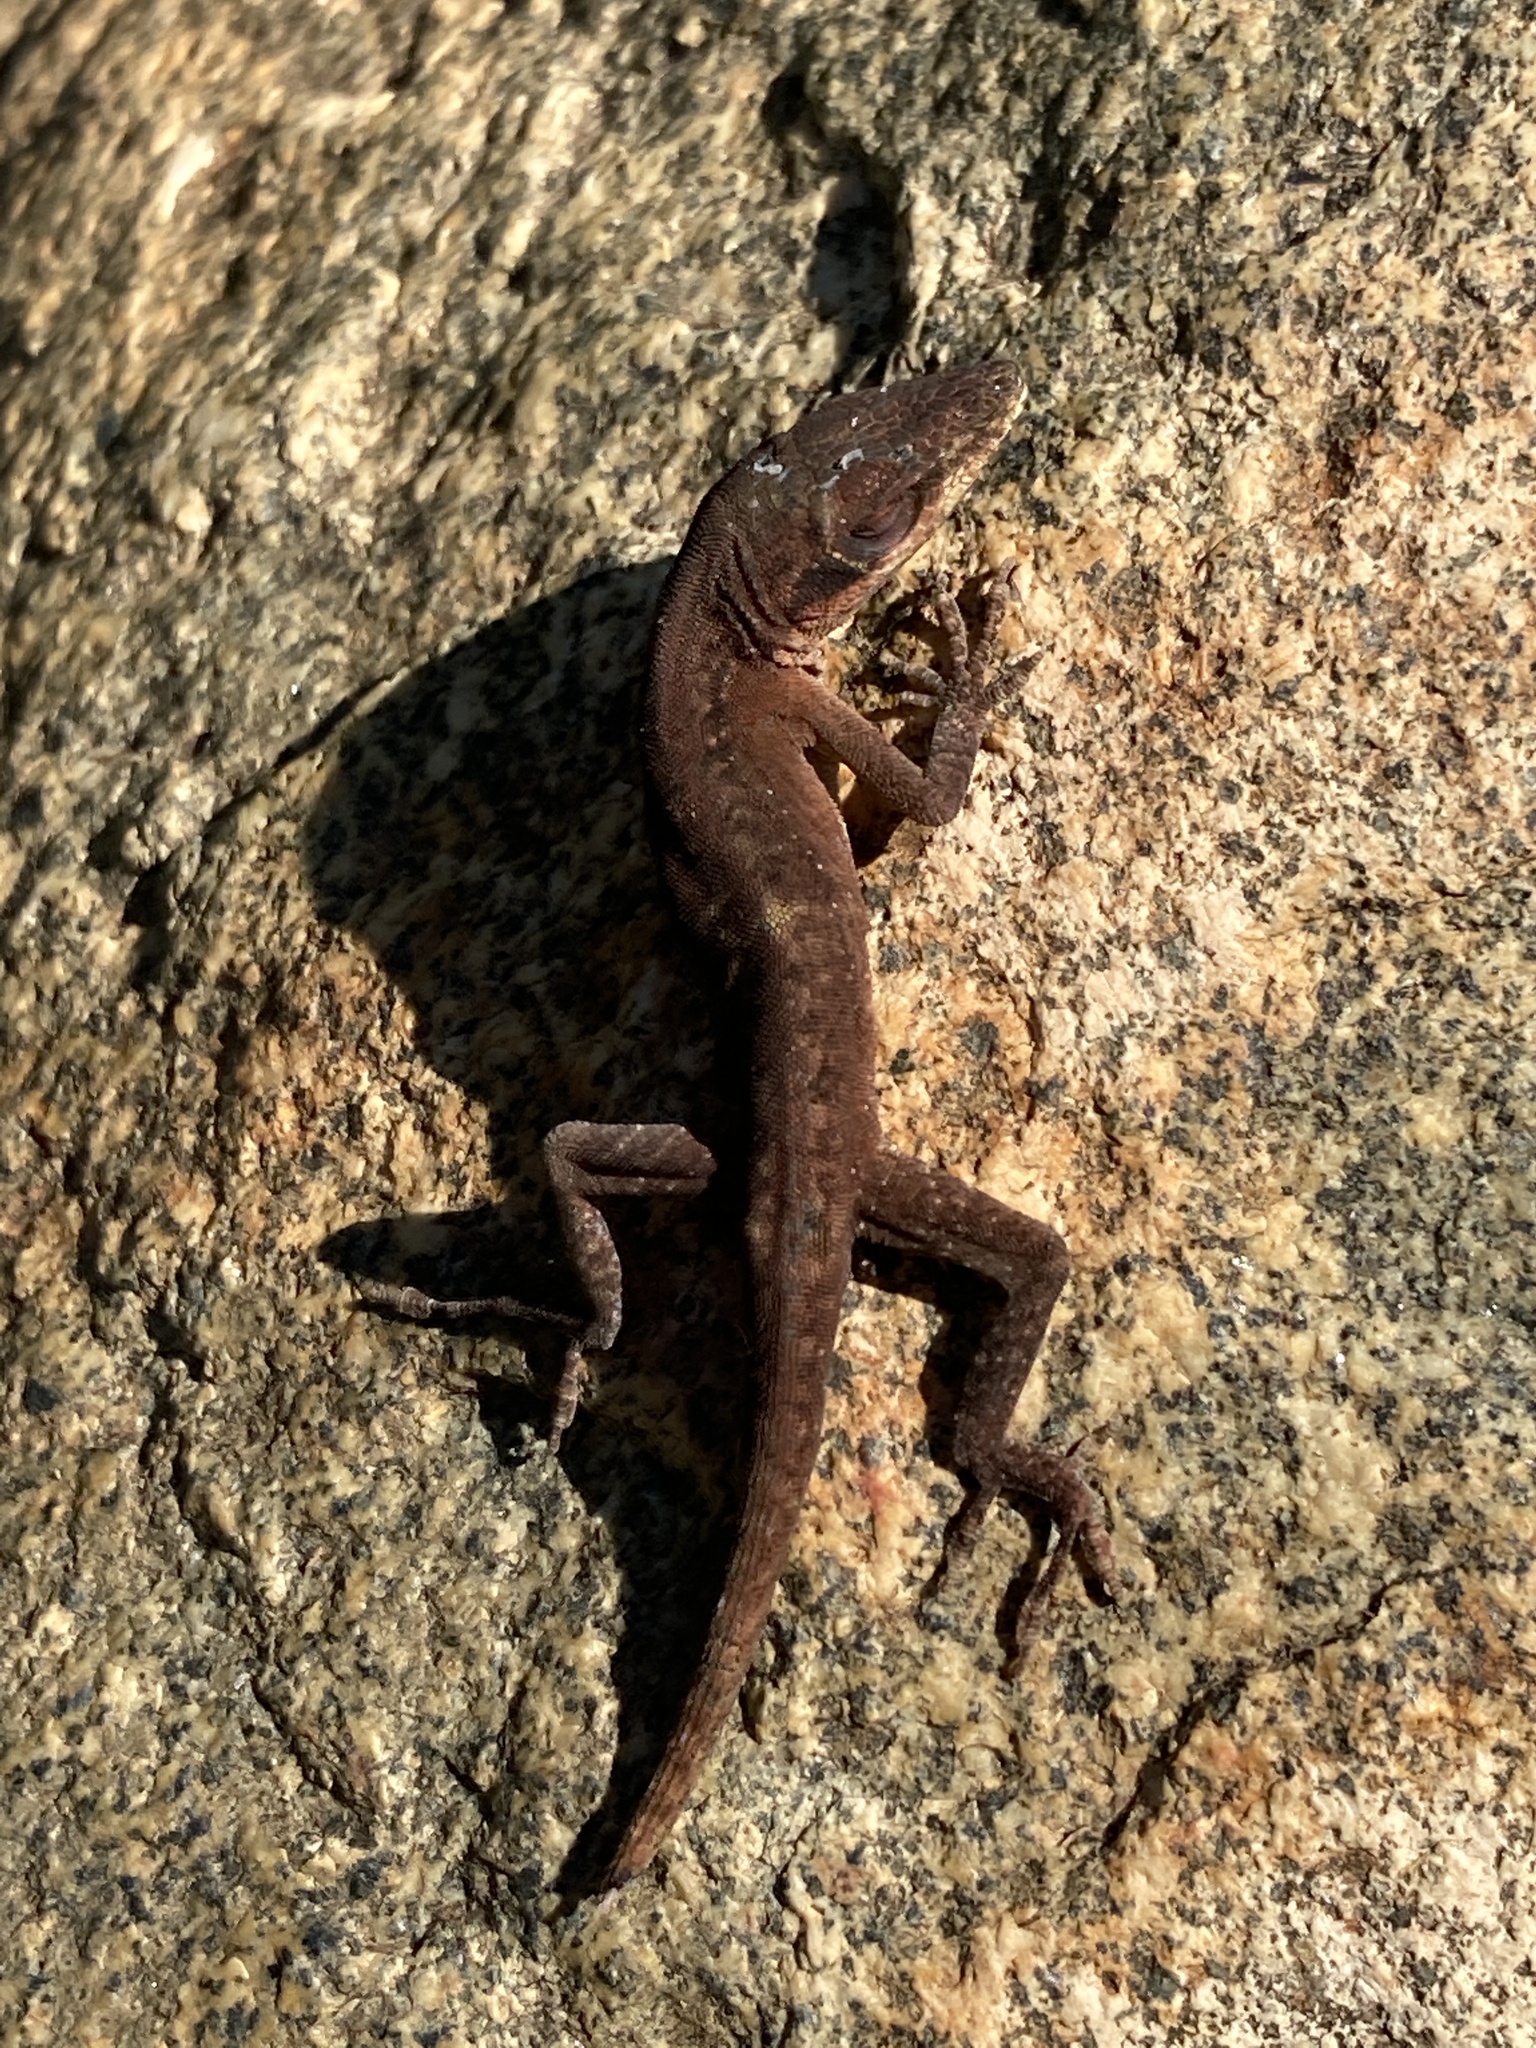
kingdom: Animalia
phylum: Chordata
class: Squamata
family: Dactyloidae
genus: Anolis
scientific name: Anolis carolinensis
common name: Green anole
